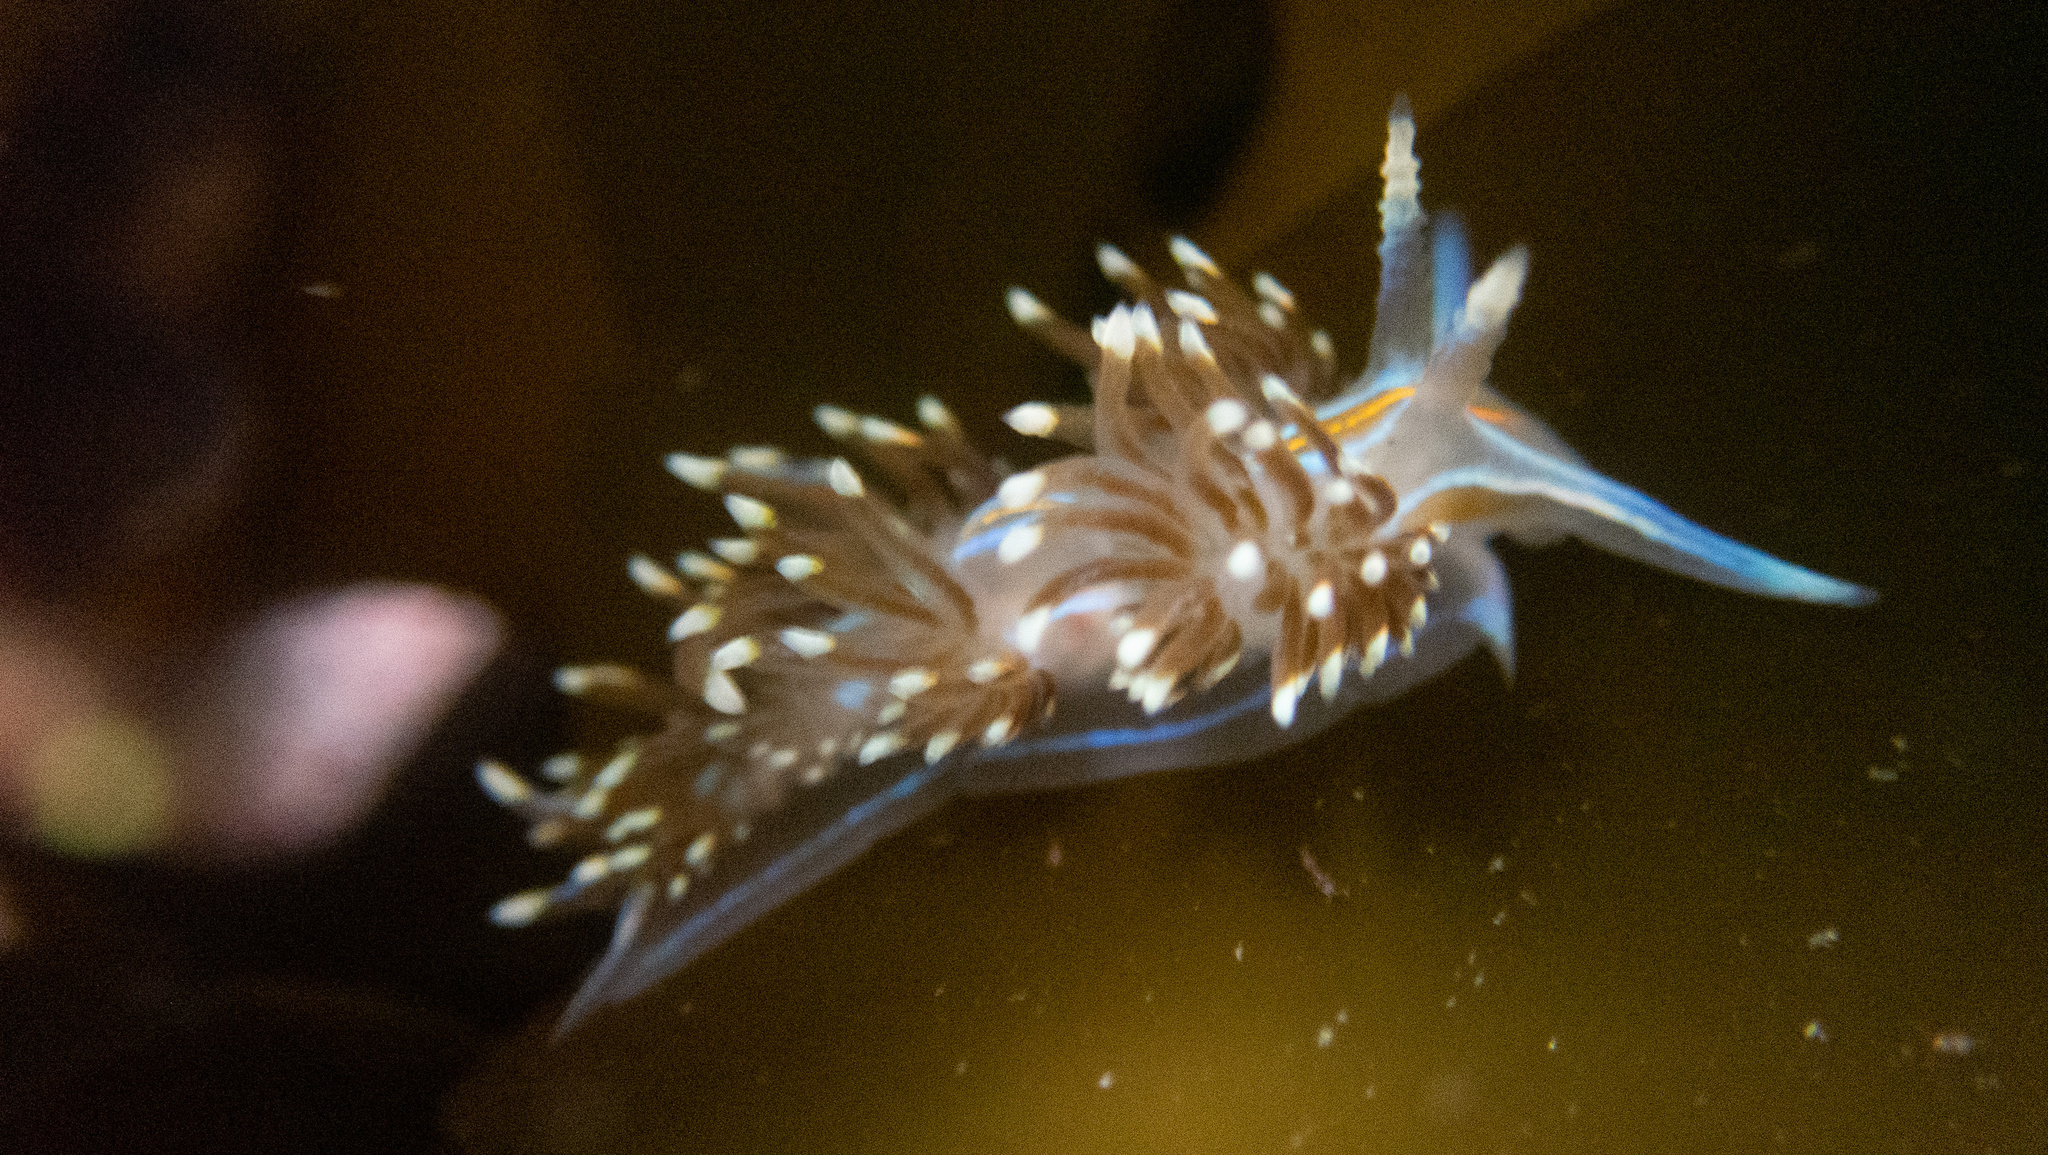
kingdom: Animalia
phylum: Mollusca
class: Gastropoda
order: Nudibranchia
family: Myrrhinidae
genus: Hermissenda
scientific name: Hermissenda opalescens
